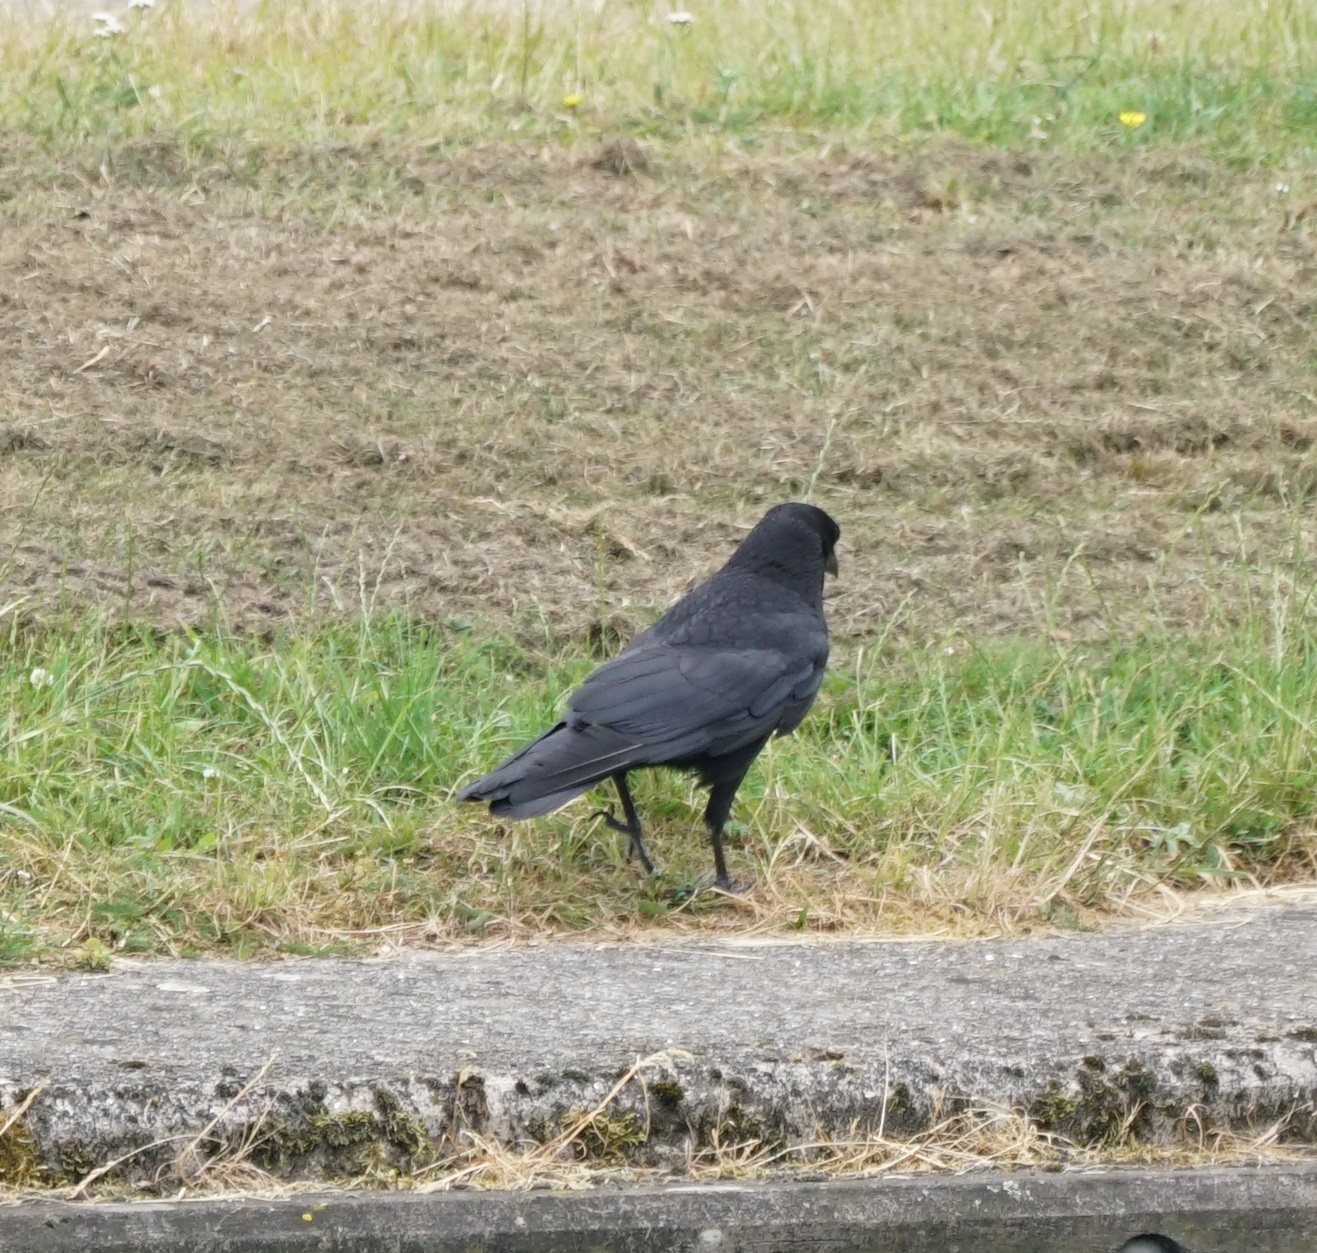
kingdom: Animalia
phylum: Chordata
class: Aves
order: Passeriformes
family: Corvidae
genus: Corvus
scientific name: Corvus corone
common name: Carrion crow
